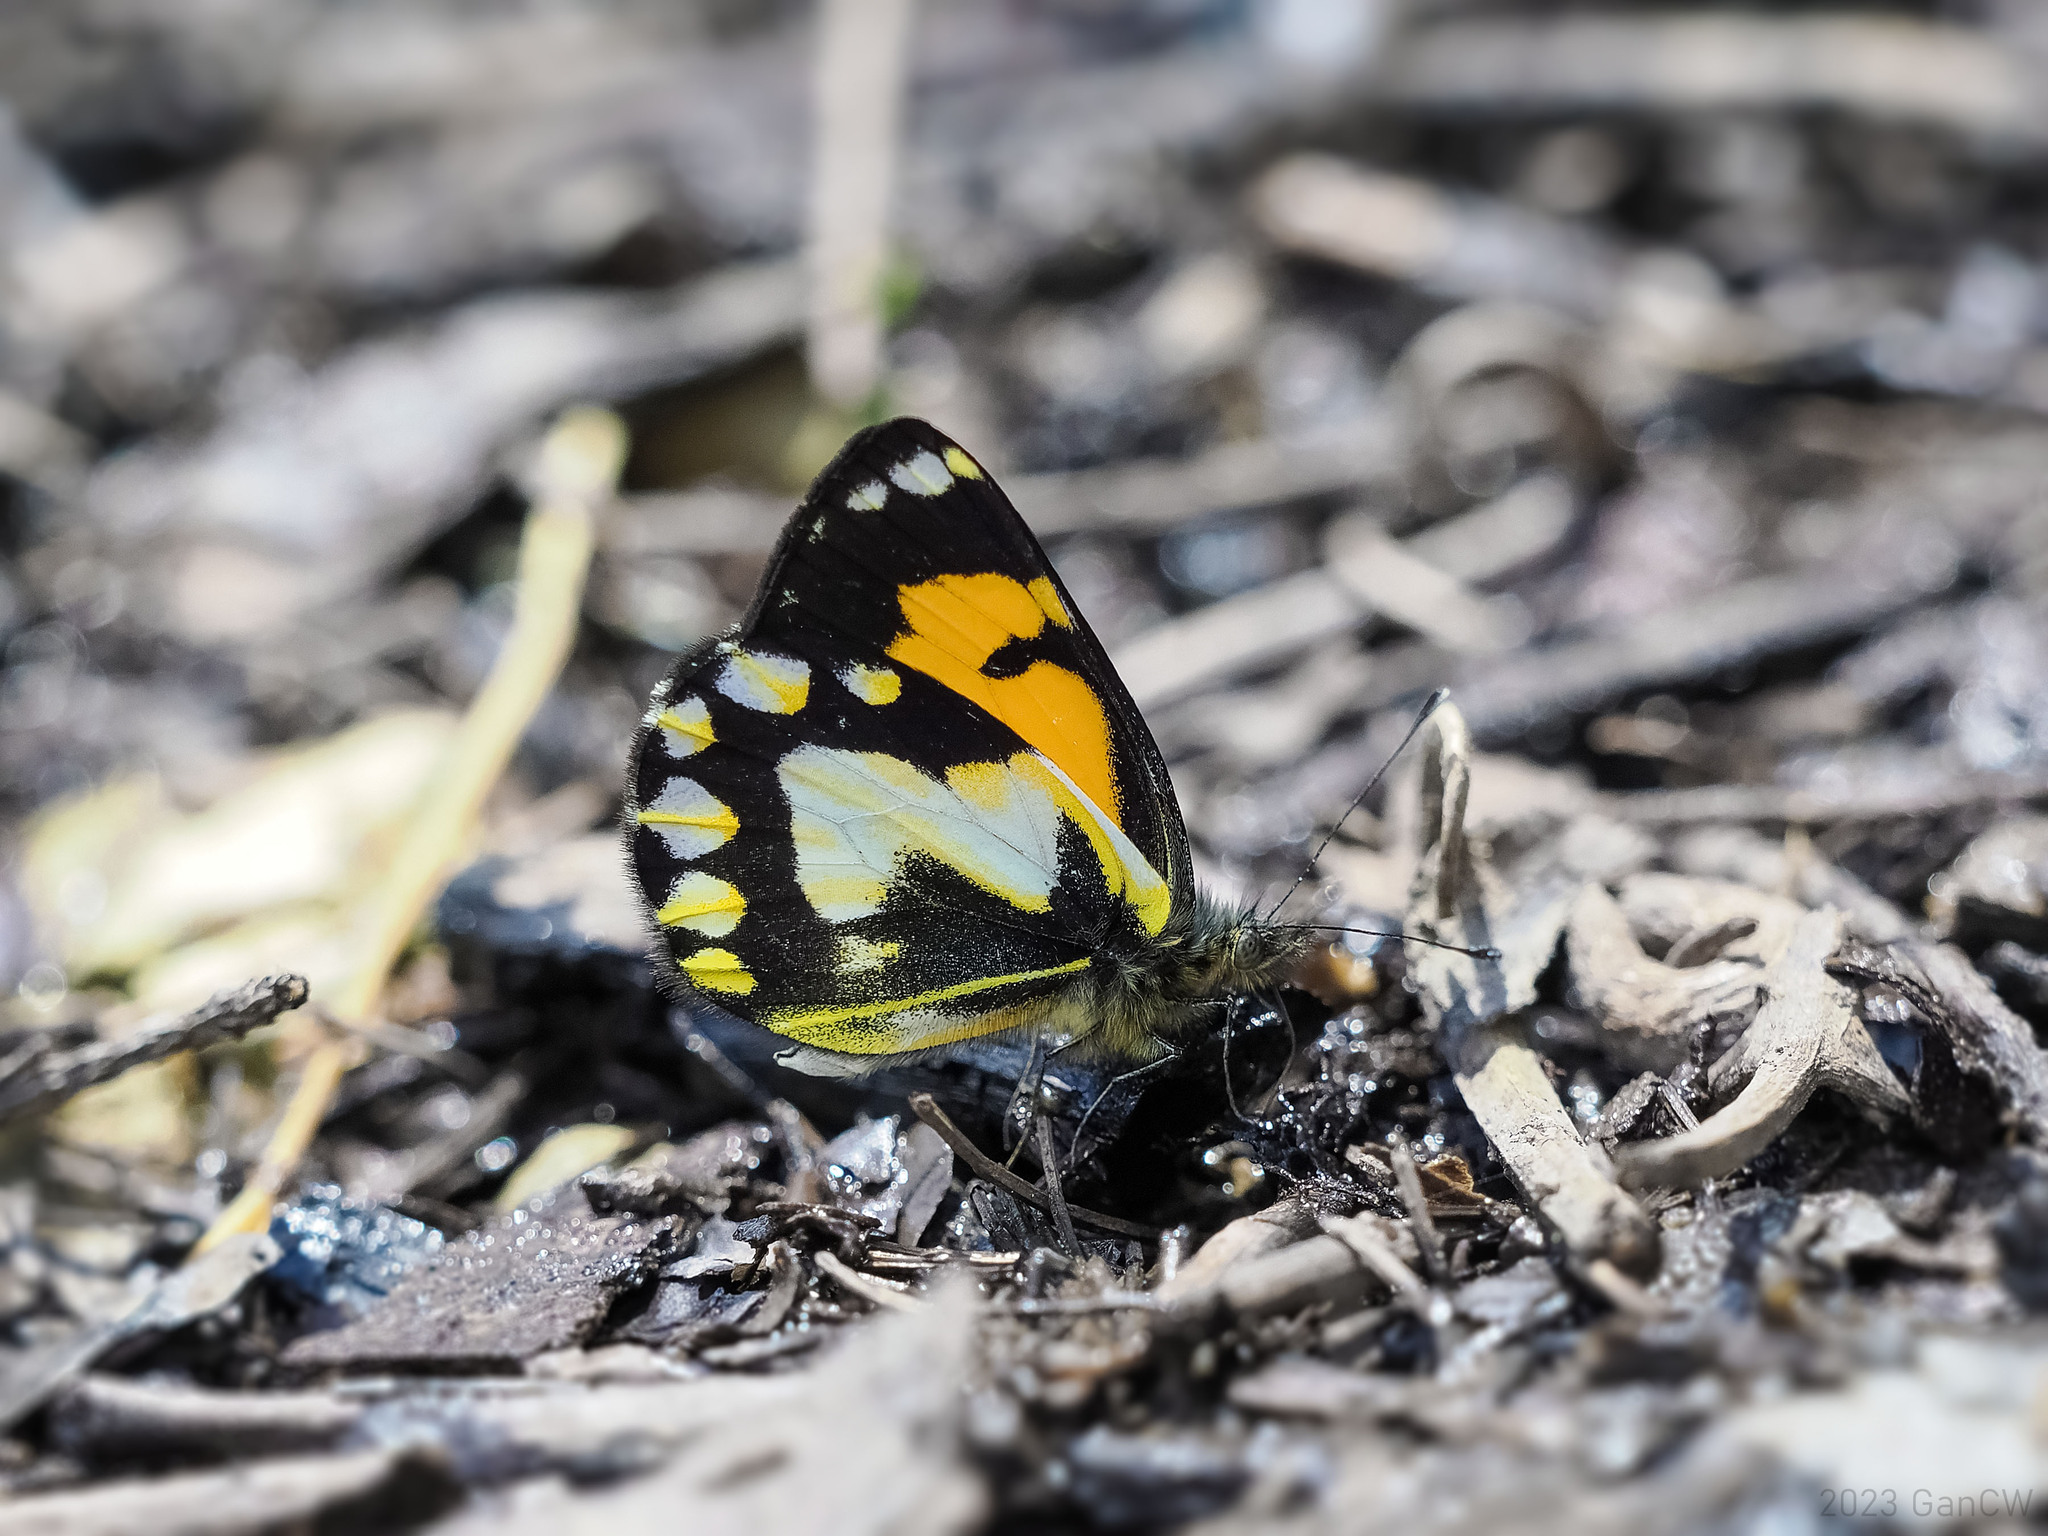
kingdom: Animalia
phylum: Arthropoda
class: Insecta
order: Lepidoptera
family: Pieridae
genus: Delias
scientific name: Delias
